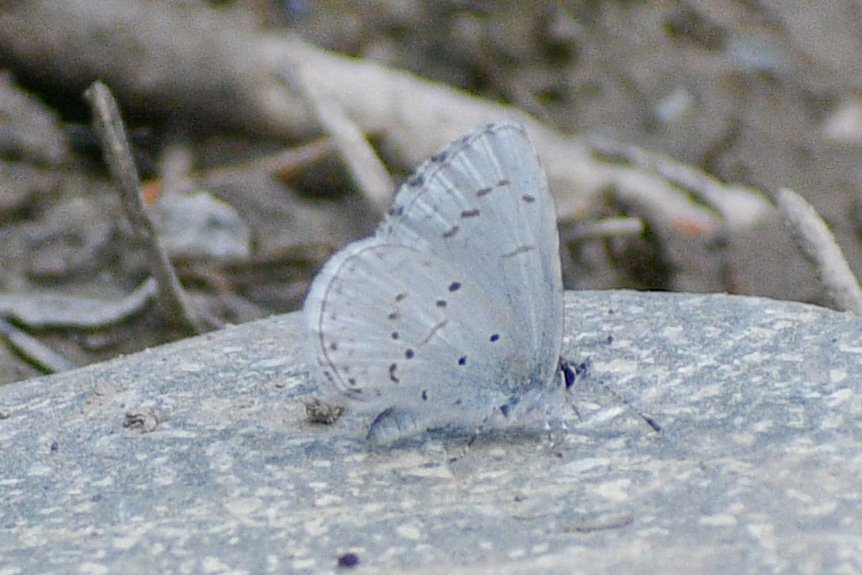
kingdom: Animalia
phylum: Arthropoda
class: Insecta
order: Lepidoptera
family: Lycaenidae
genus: Celastrina
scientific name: Celastrina ladon
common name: Spring azure
